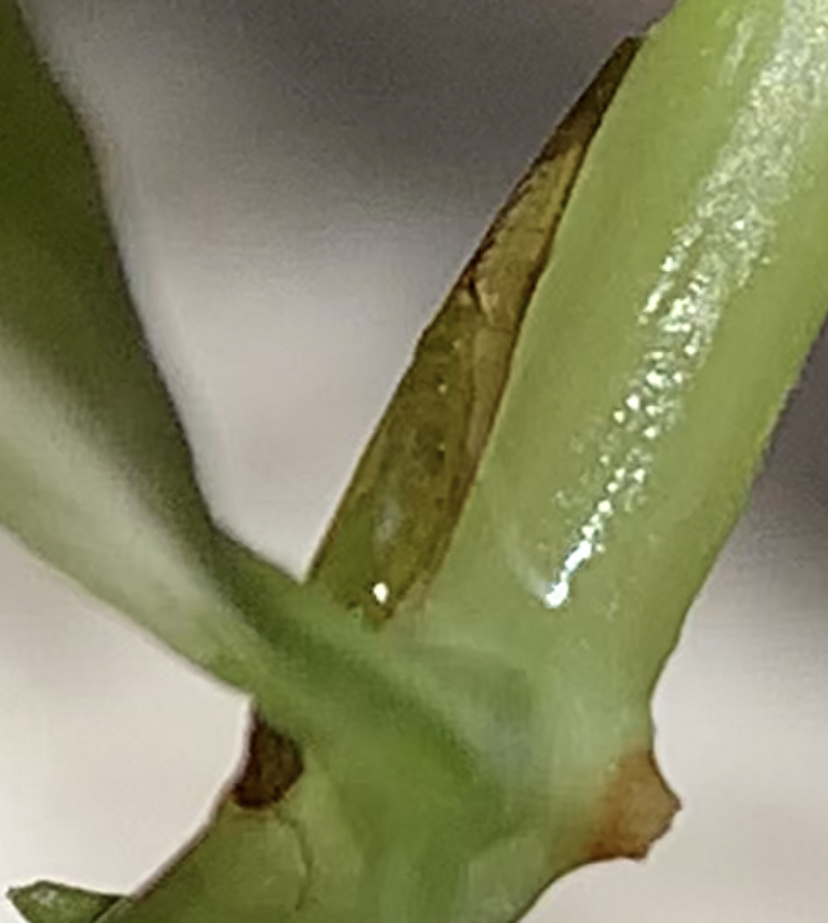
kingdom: Animalia
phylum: Arthropoda
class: Insecta
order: Trichoptera
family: Leptoceridae
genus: Leptocerus
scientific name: Leptocerus americanus
